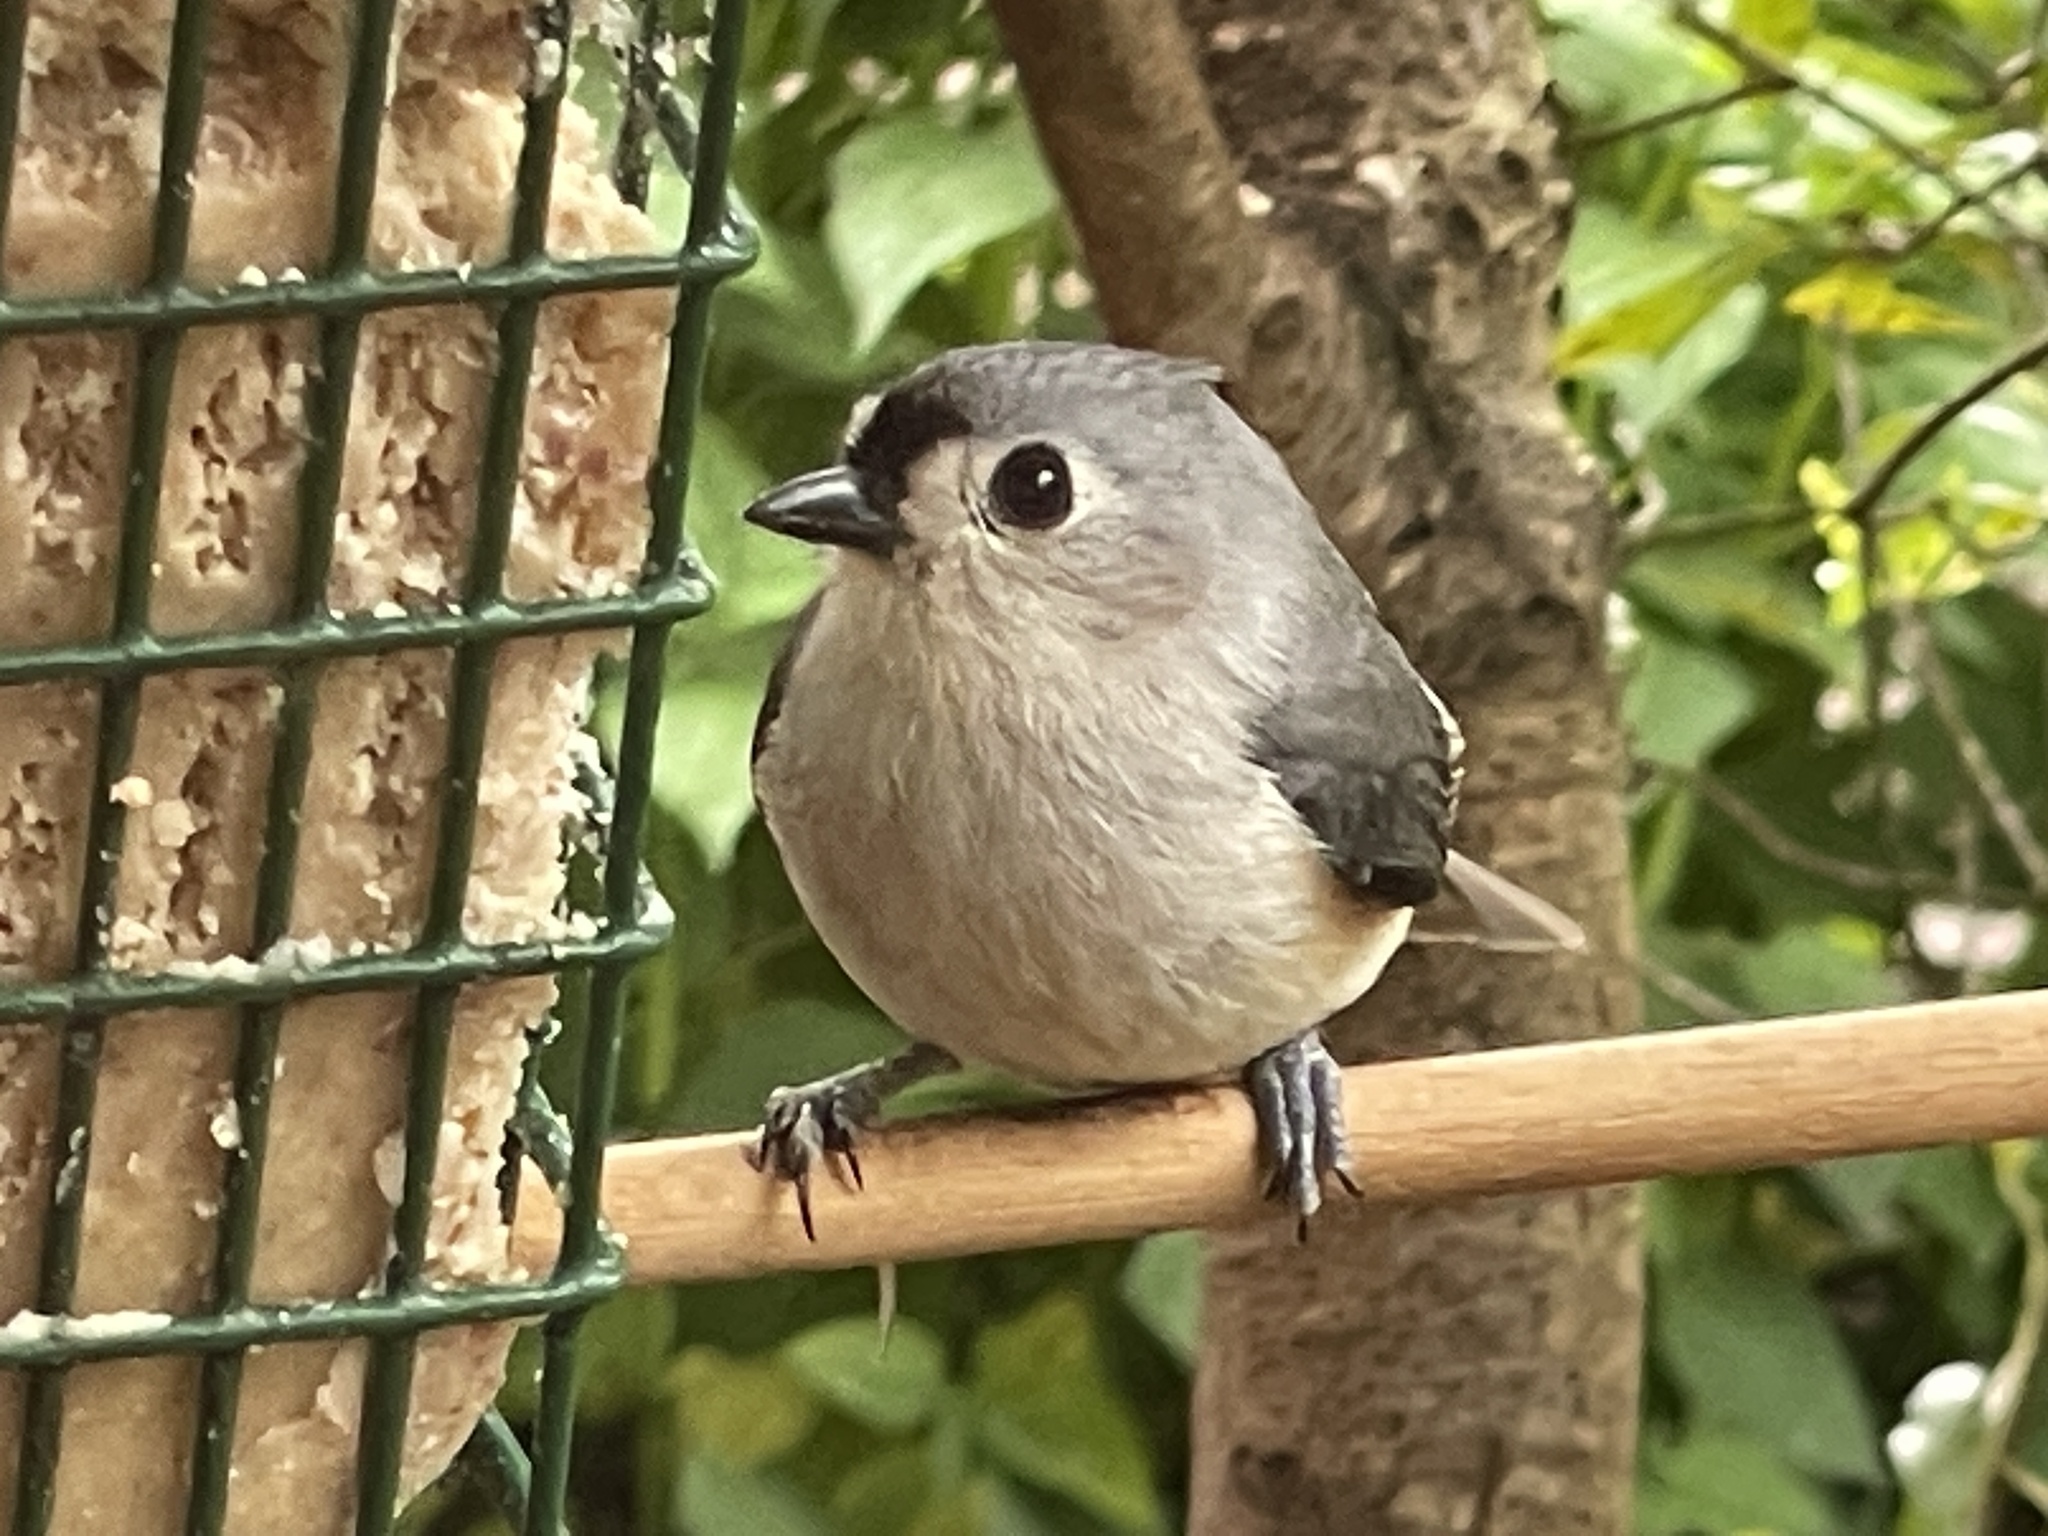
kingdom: Animalia
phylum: Chordata
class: Aves
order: Passeriformes
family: Paridae
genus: Baeolophus
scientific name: Baeolophus bicolor
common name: Tufted titmouse
